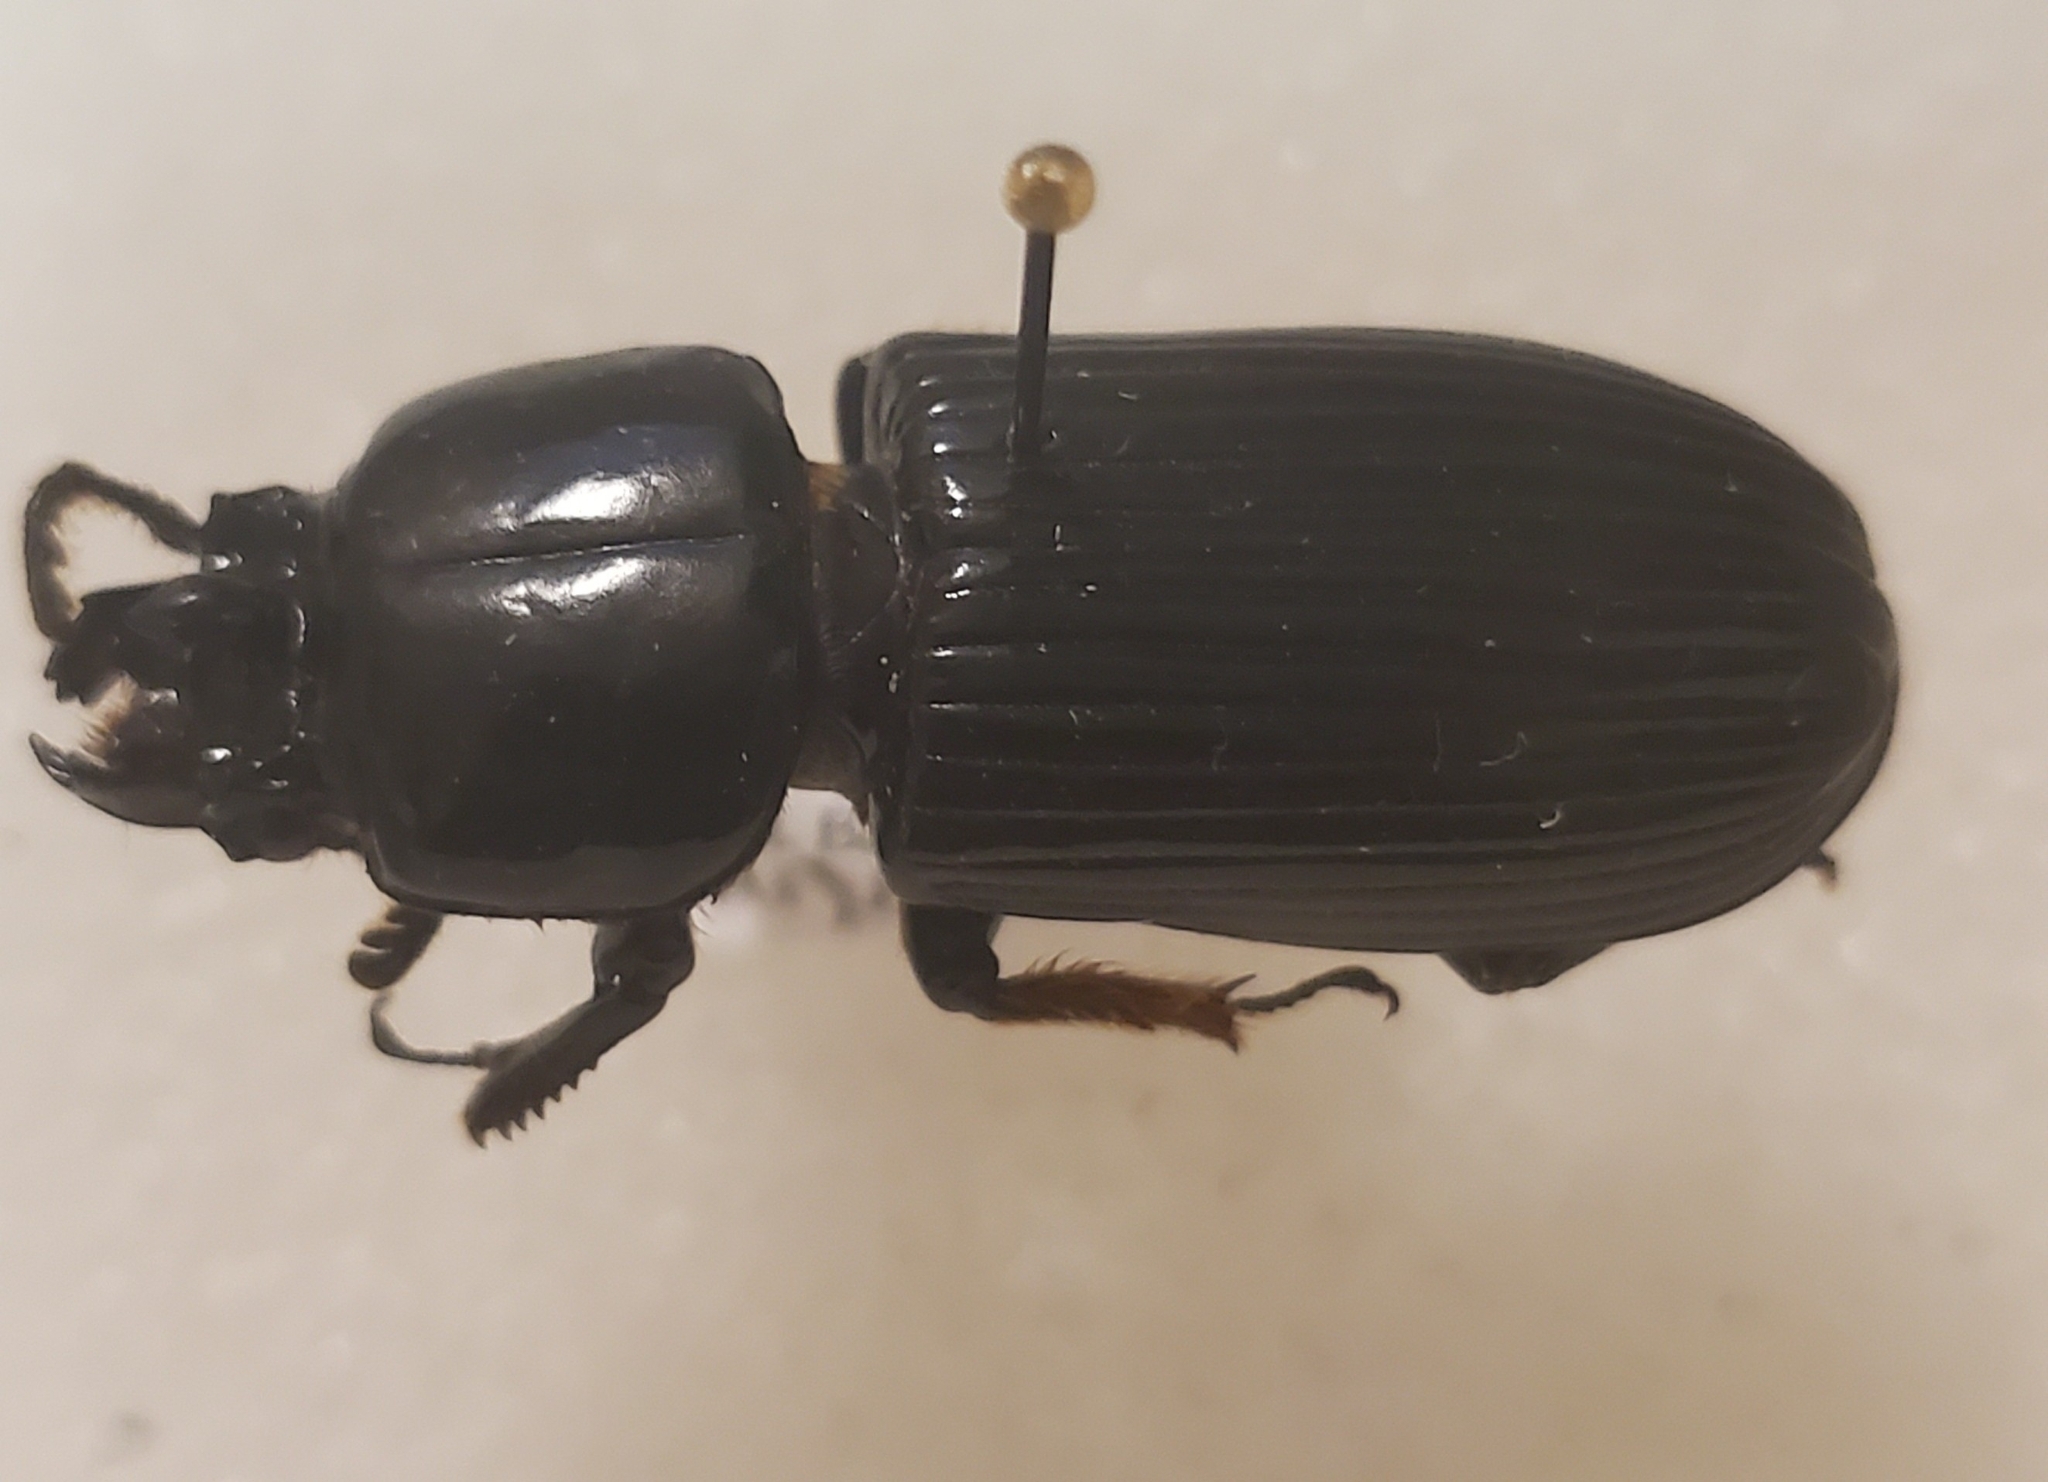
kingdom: Animalia
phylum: Arthropoda
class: Insecta
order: Coleoptera
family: Passalidae
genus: Odontotaenius
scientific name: Odontotaenius disjunctus
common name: Patent leather beetle
